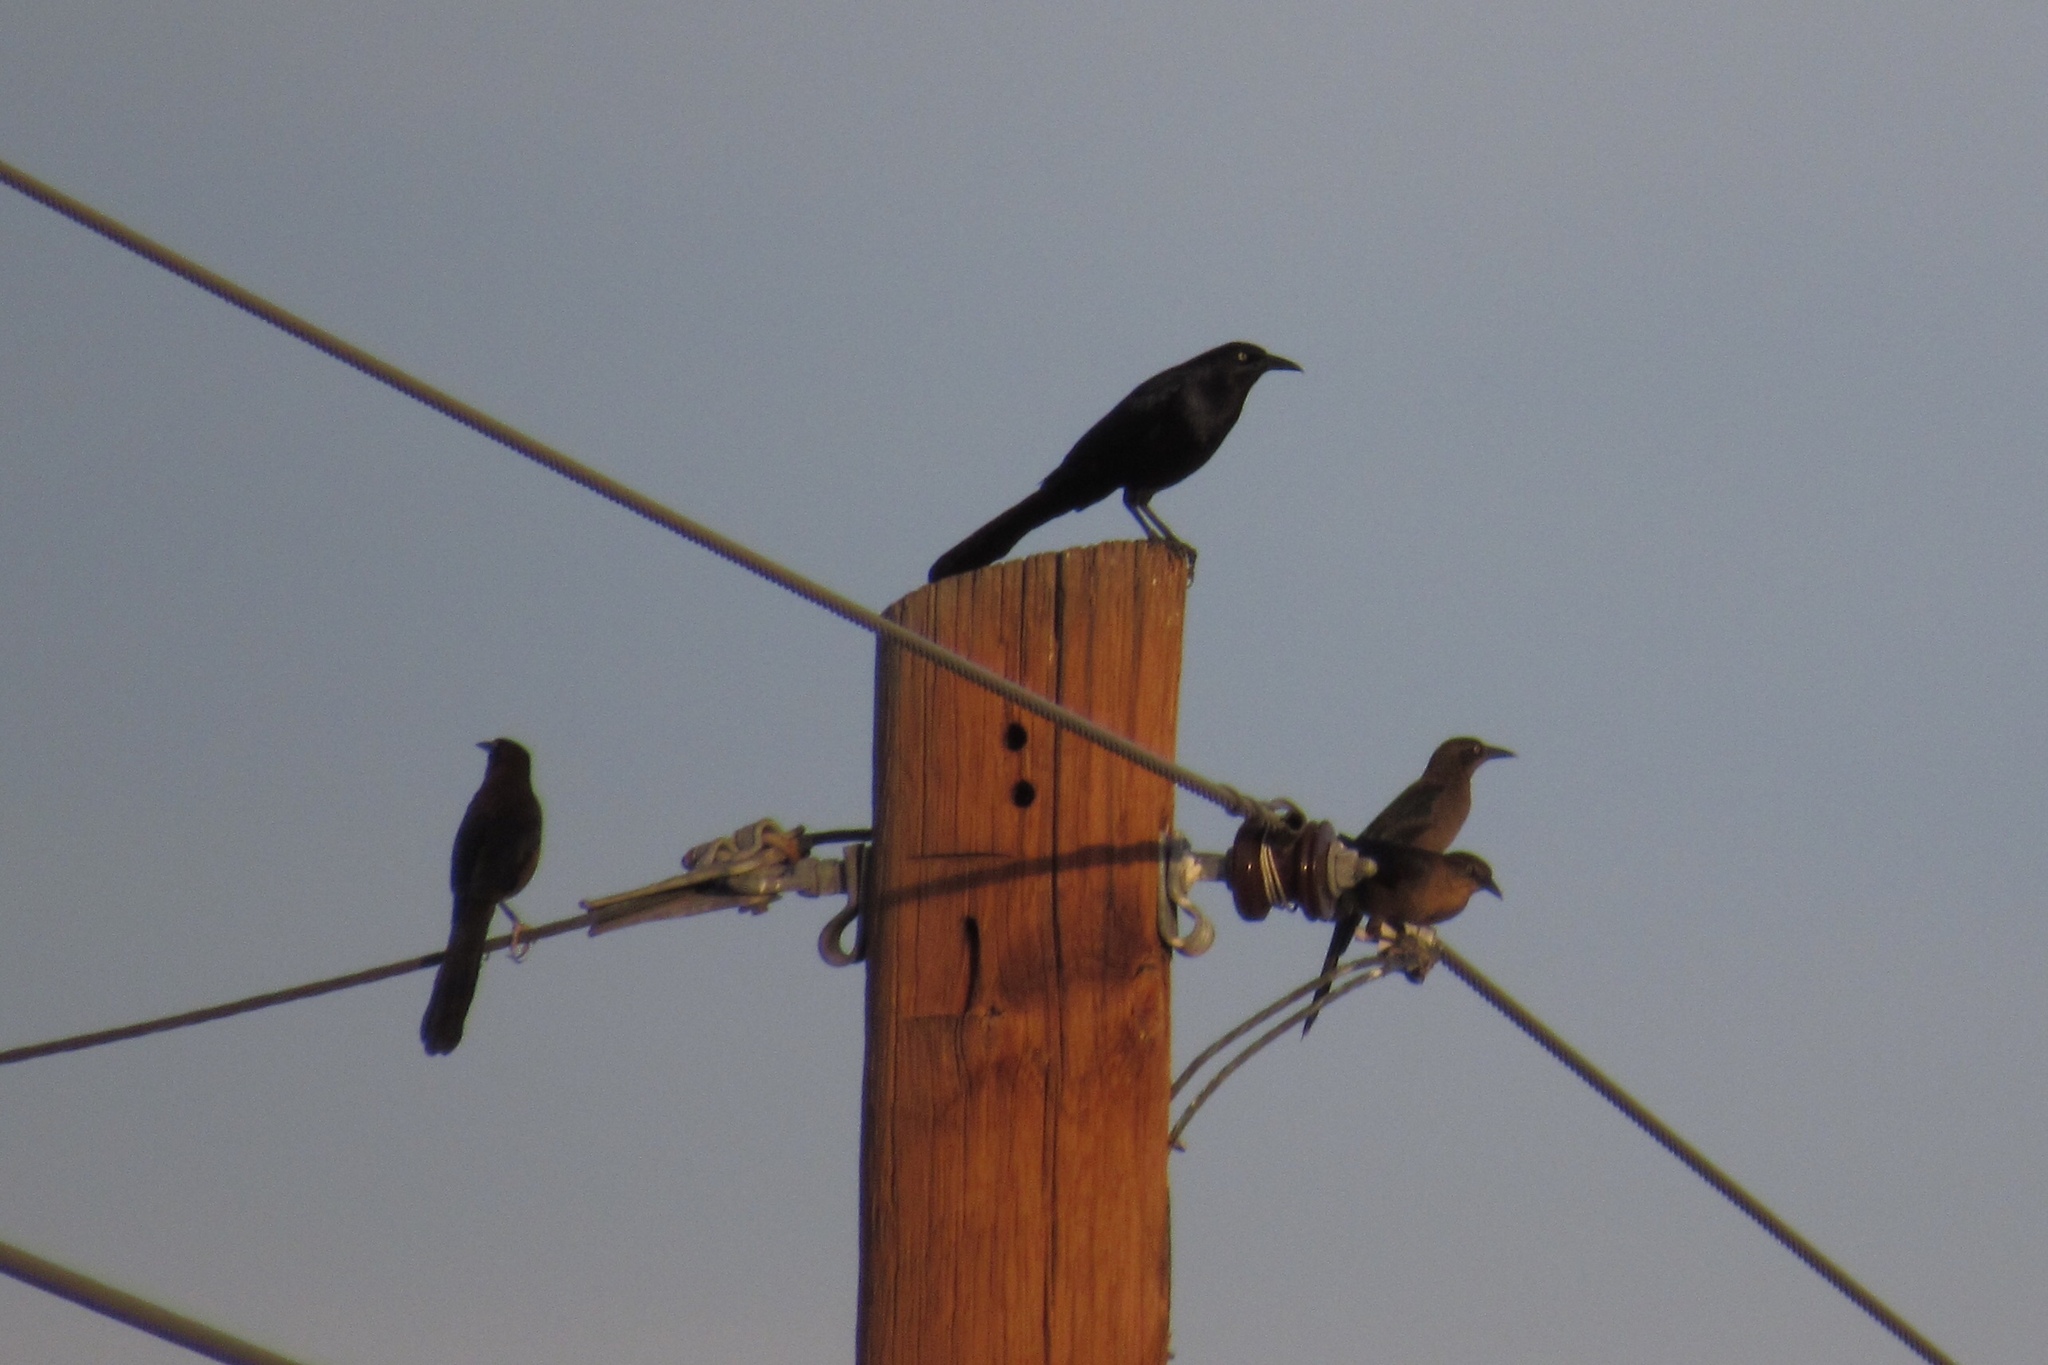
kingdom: Animalia
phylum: Chordata
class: Aves
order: Passeriformes
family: Icteridae
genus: Quiscalus
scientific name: Quiscalus mexicanus
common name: Great-tailed grackle
